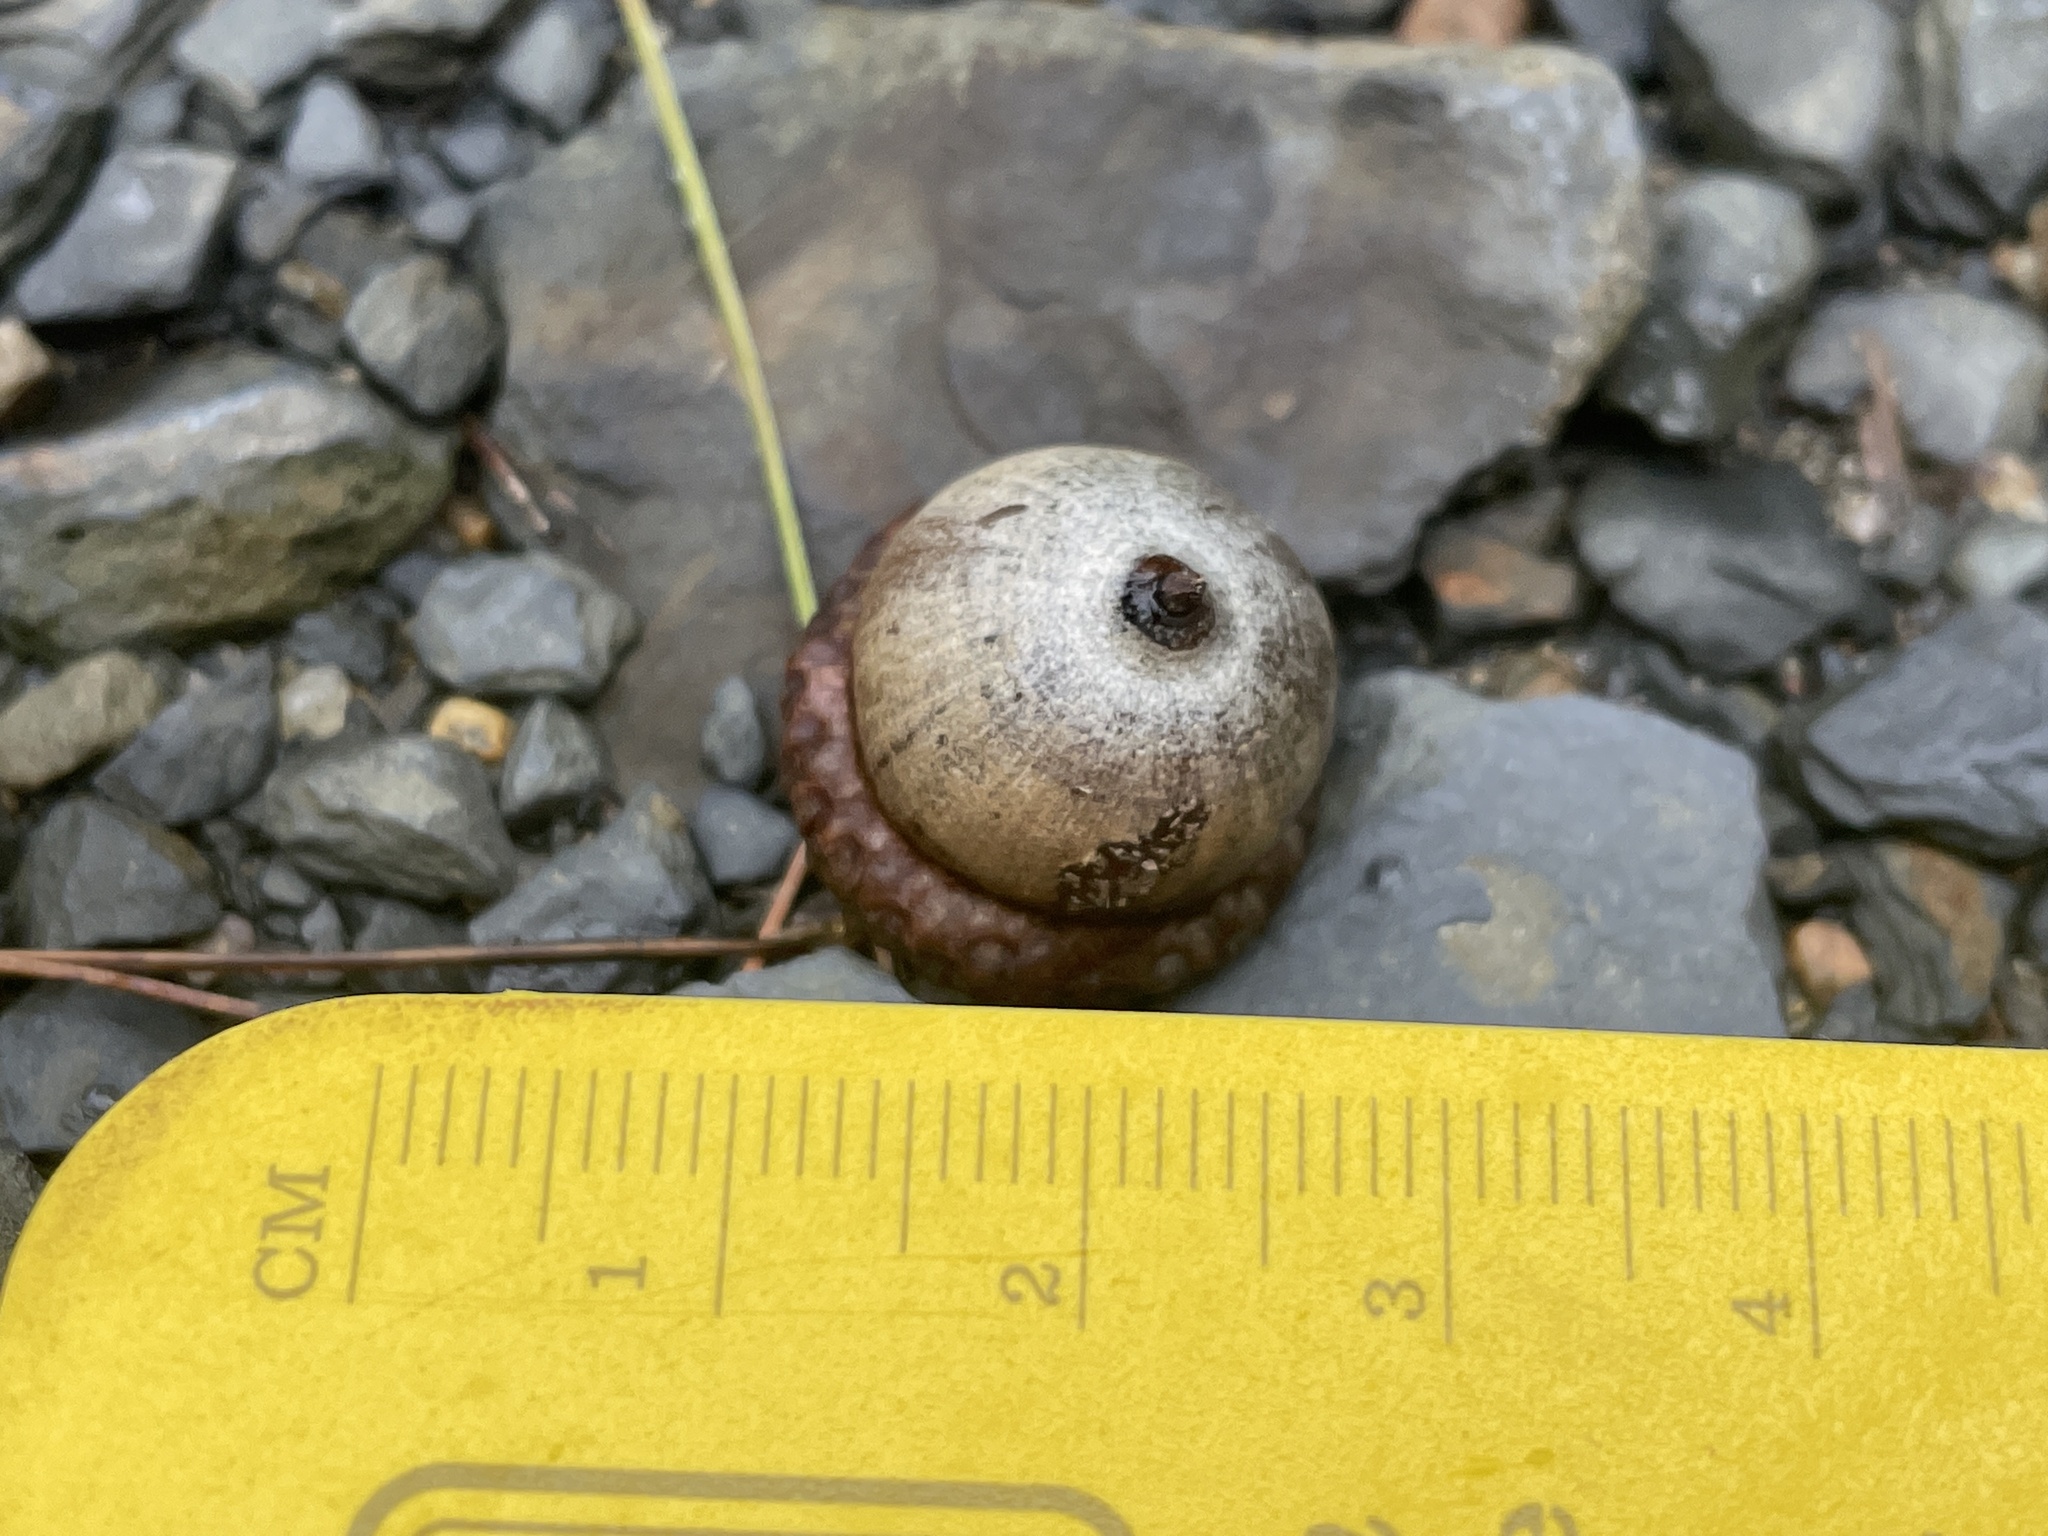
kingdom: Plantae
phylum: Tracheophyta
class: Magnoliopsida
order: Fagales
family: Fagaceae
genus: Quercus
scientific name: Quercus rubra
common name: Red oak
